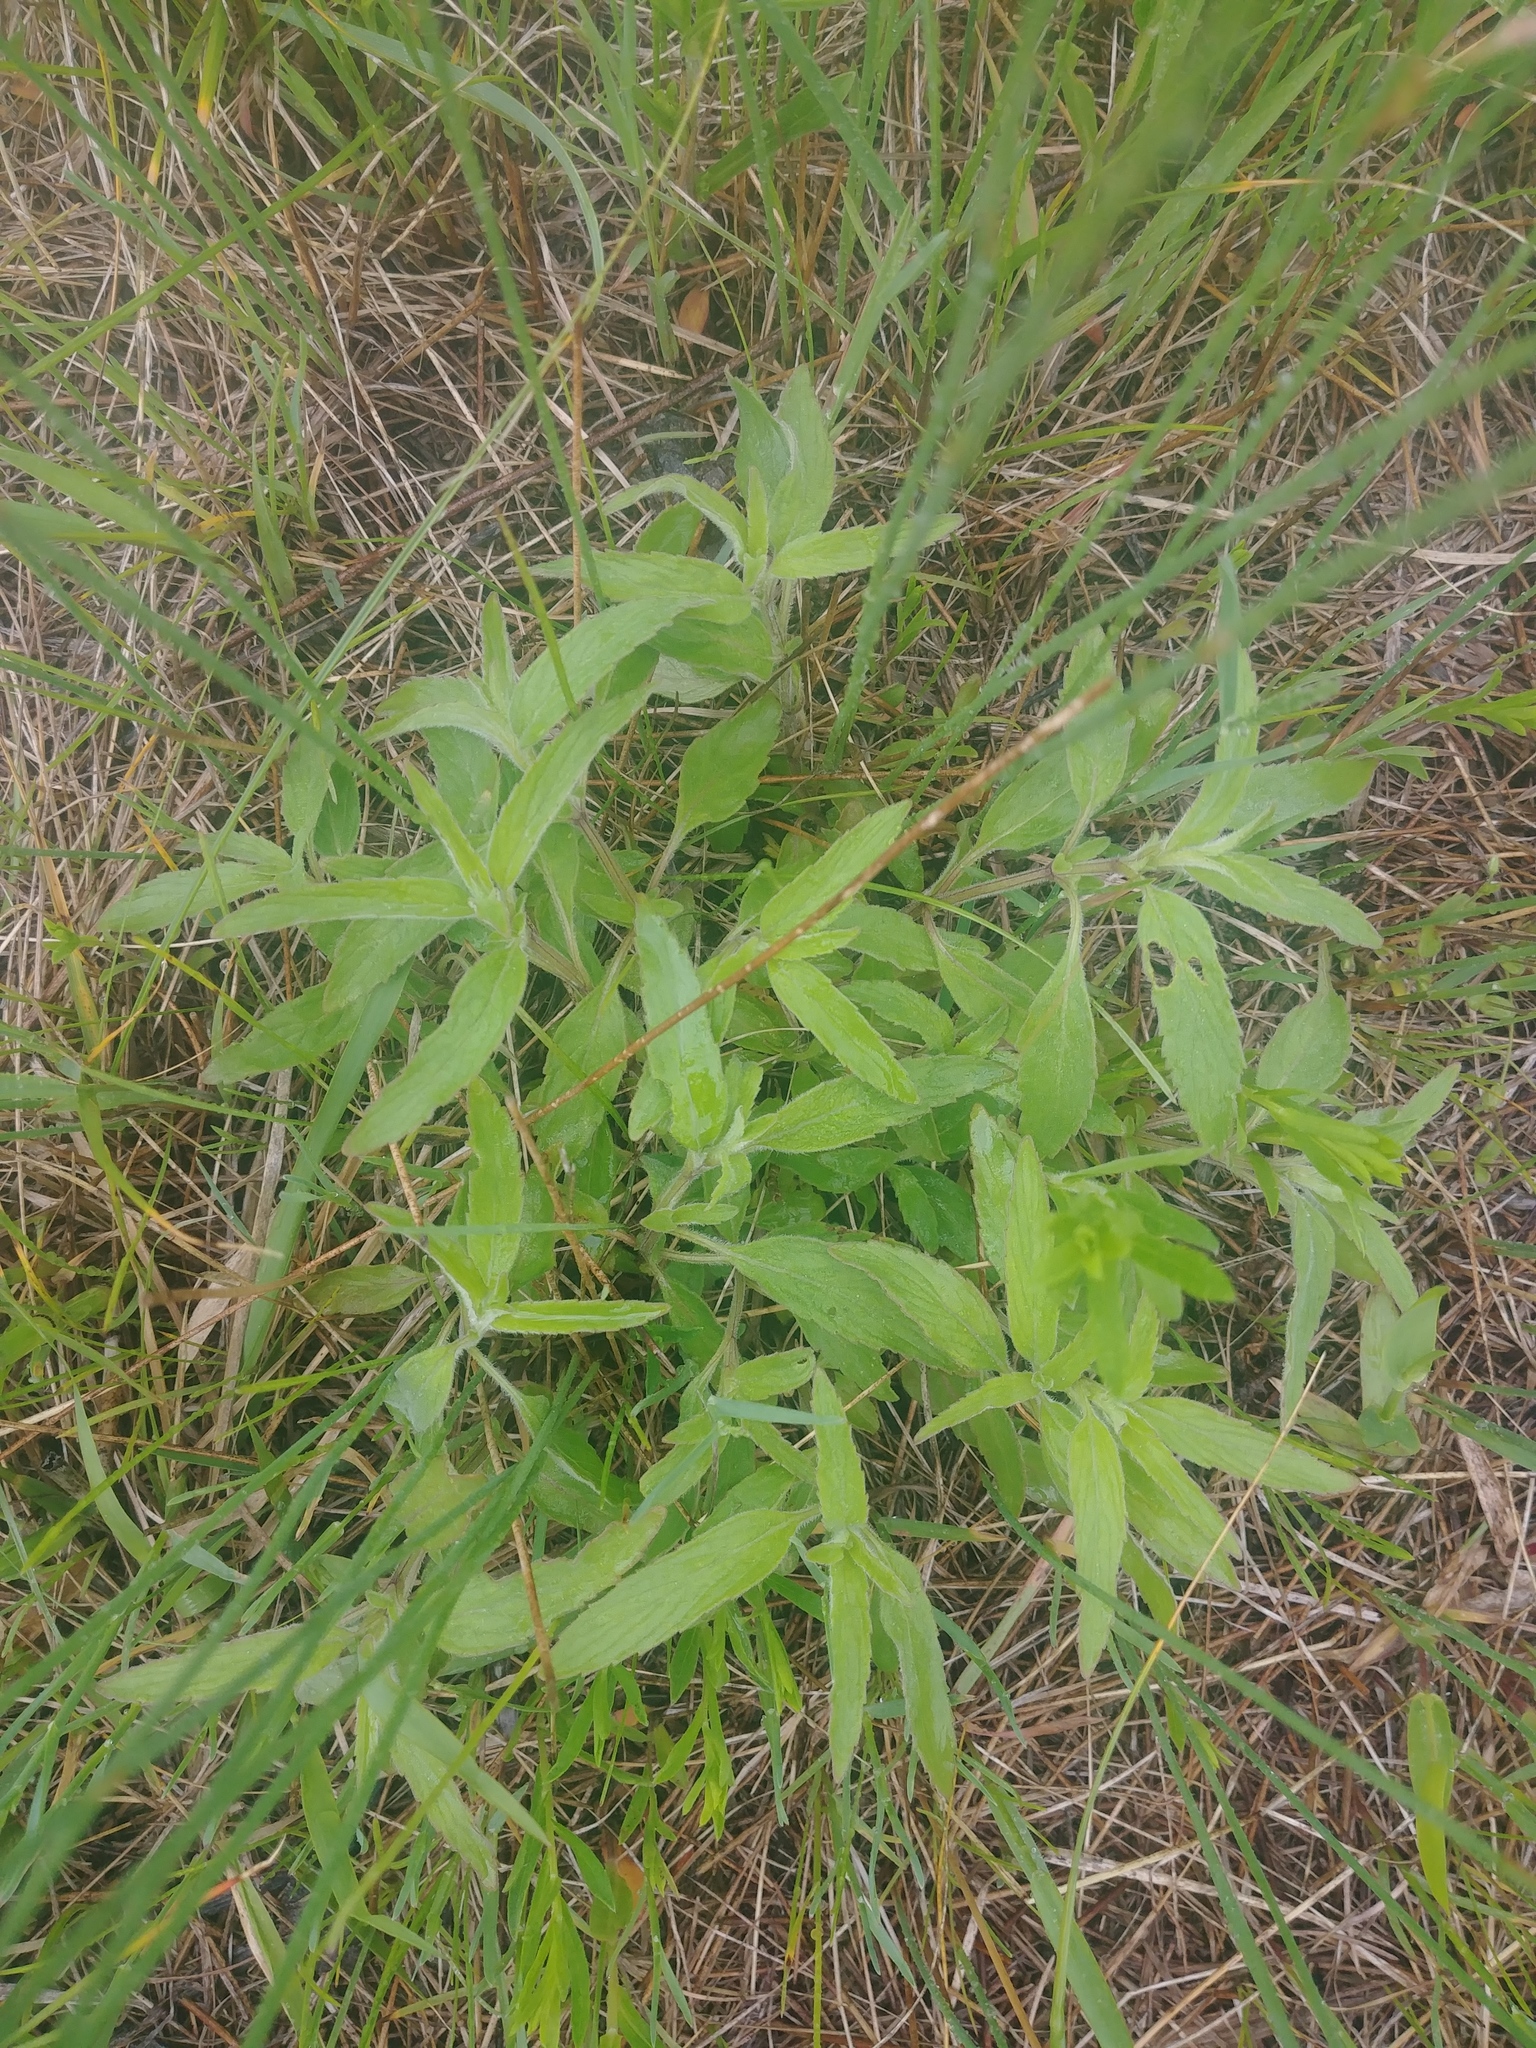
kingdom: Plantae
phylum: Tracheophyta
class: Magnoliopsida
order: Lamiales
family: Lamiaceae
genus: Monarda
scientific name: Monarda punctata
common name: Dotted monarda
